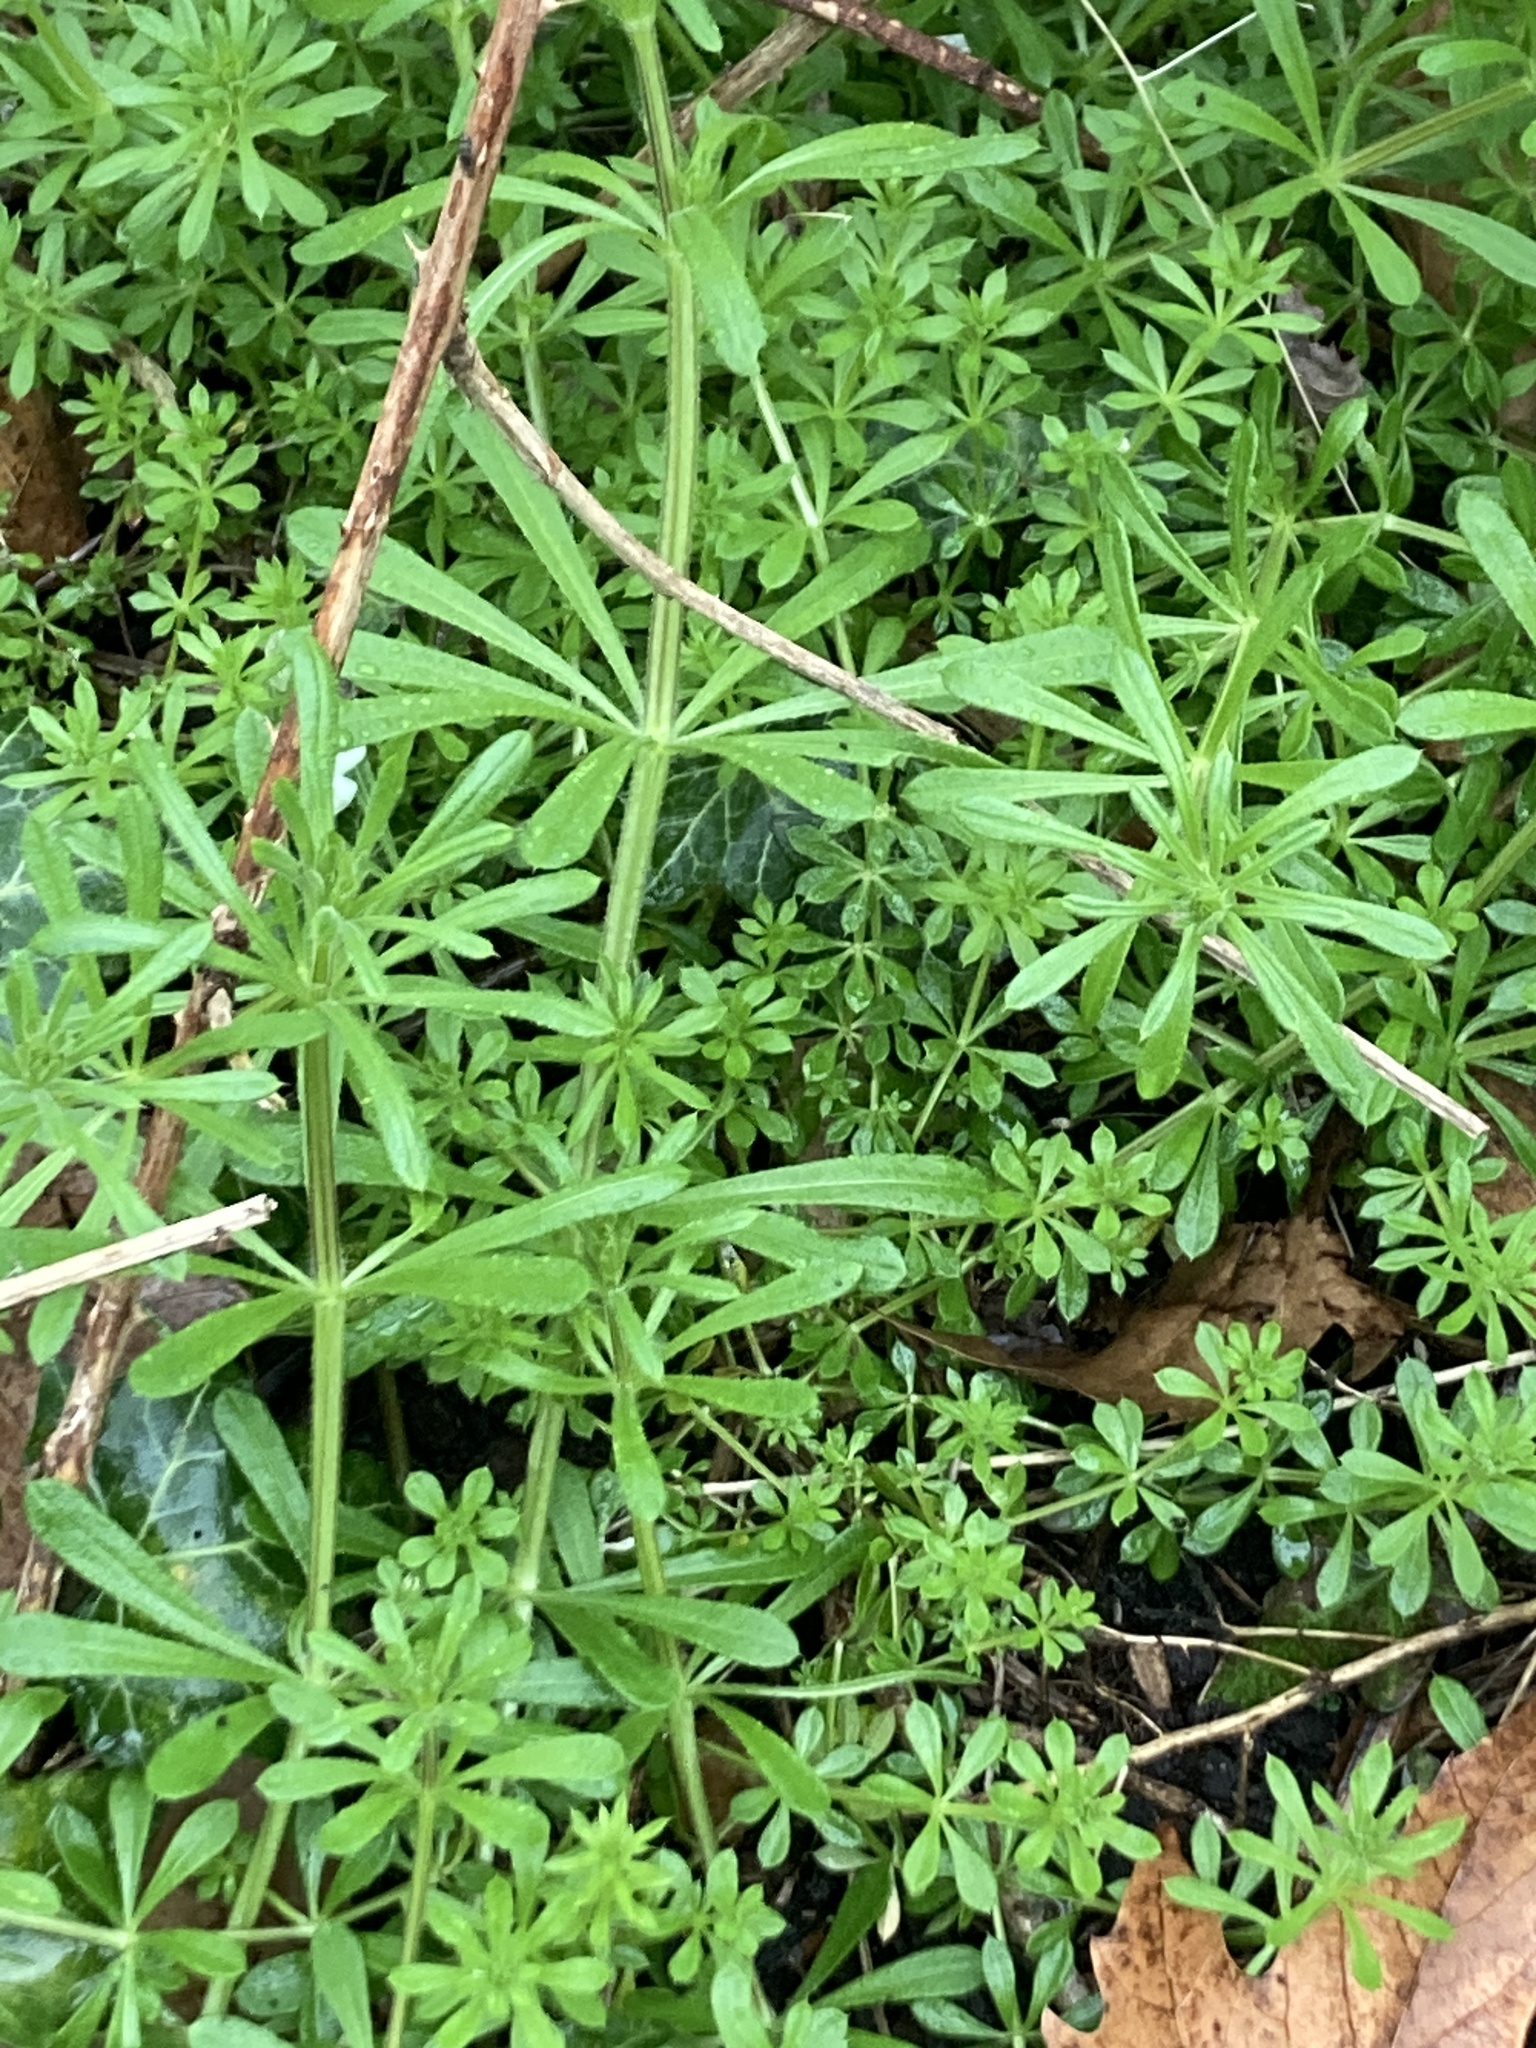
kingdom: Plantae
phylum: Tracheophyta
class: Magnoliopsida
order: Gentianales
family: Rubiaceae
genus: Galium
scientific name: Galium aparine
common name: Cleavers
